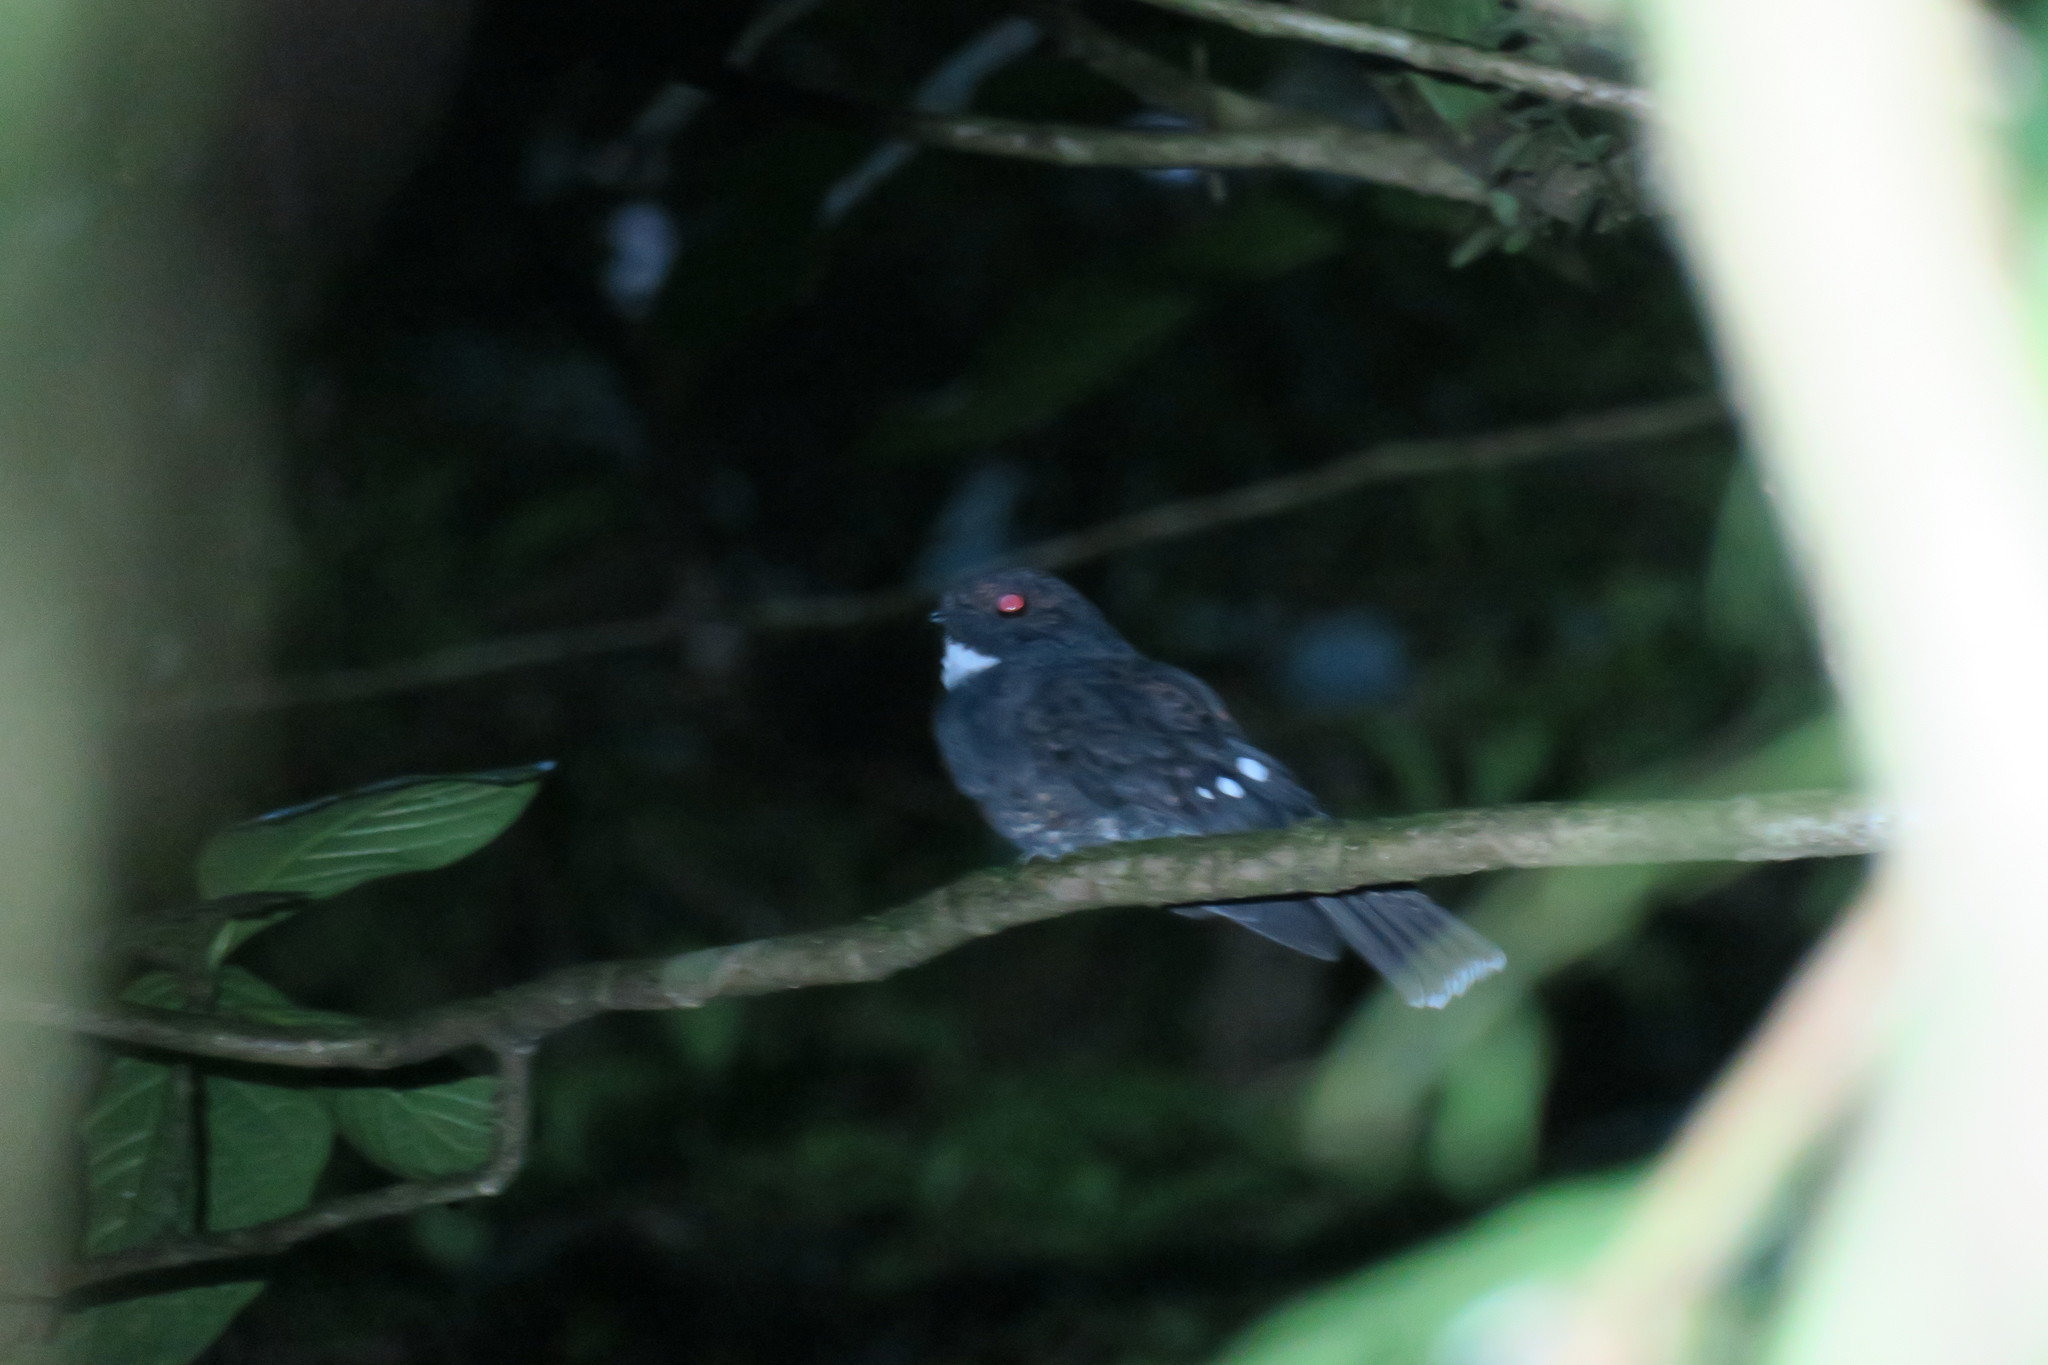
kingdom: Animalia
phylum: Chordata
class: Aves
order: Caprimulgiformes
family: Caprimulgidae
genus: Nyctiphrynus
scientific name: Nyctiphrynus rosenbergi
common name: Choco poorwill
